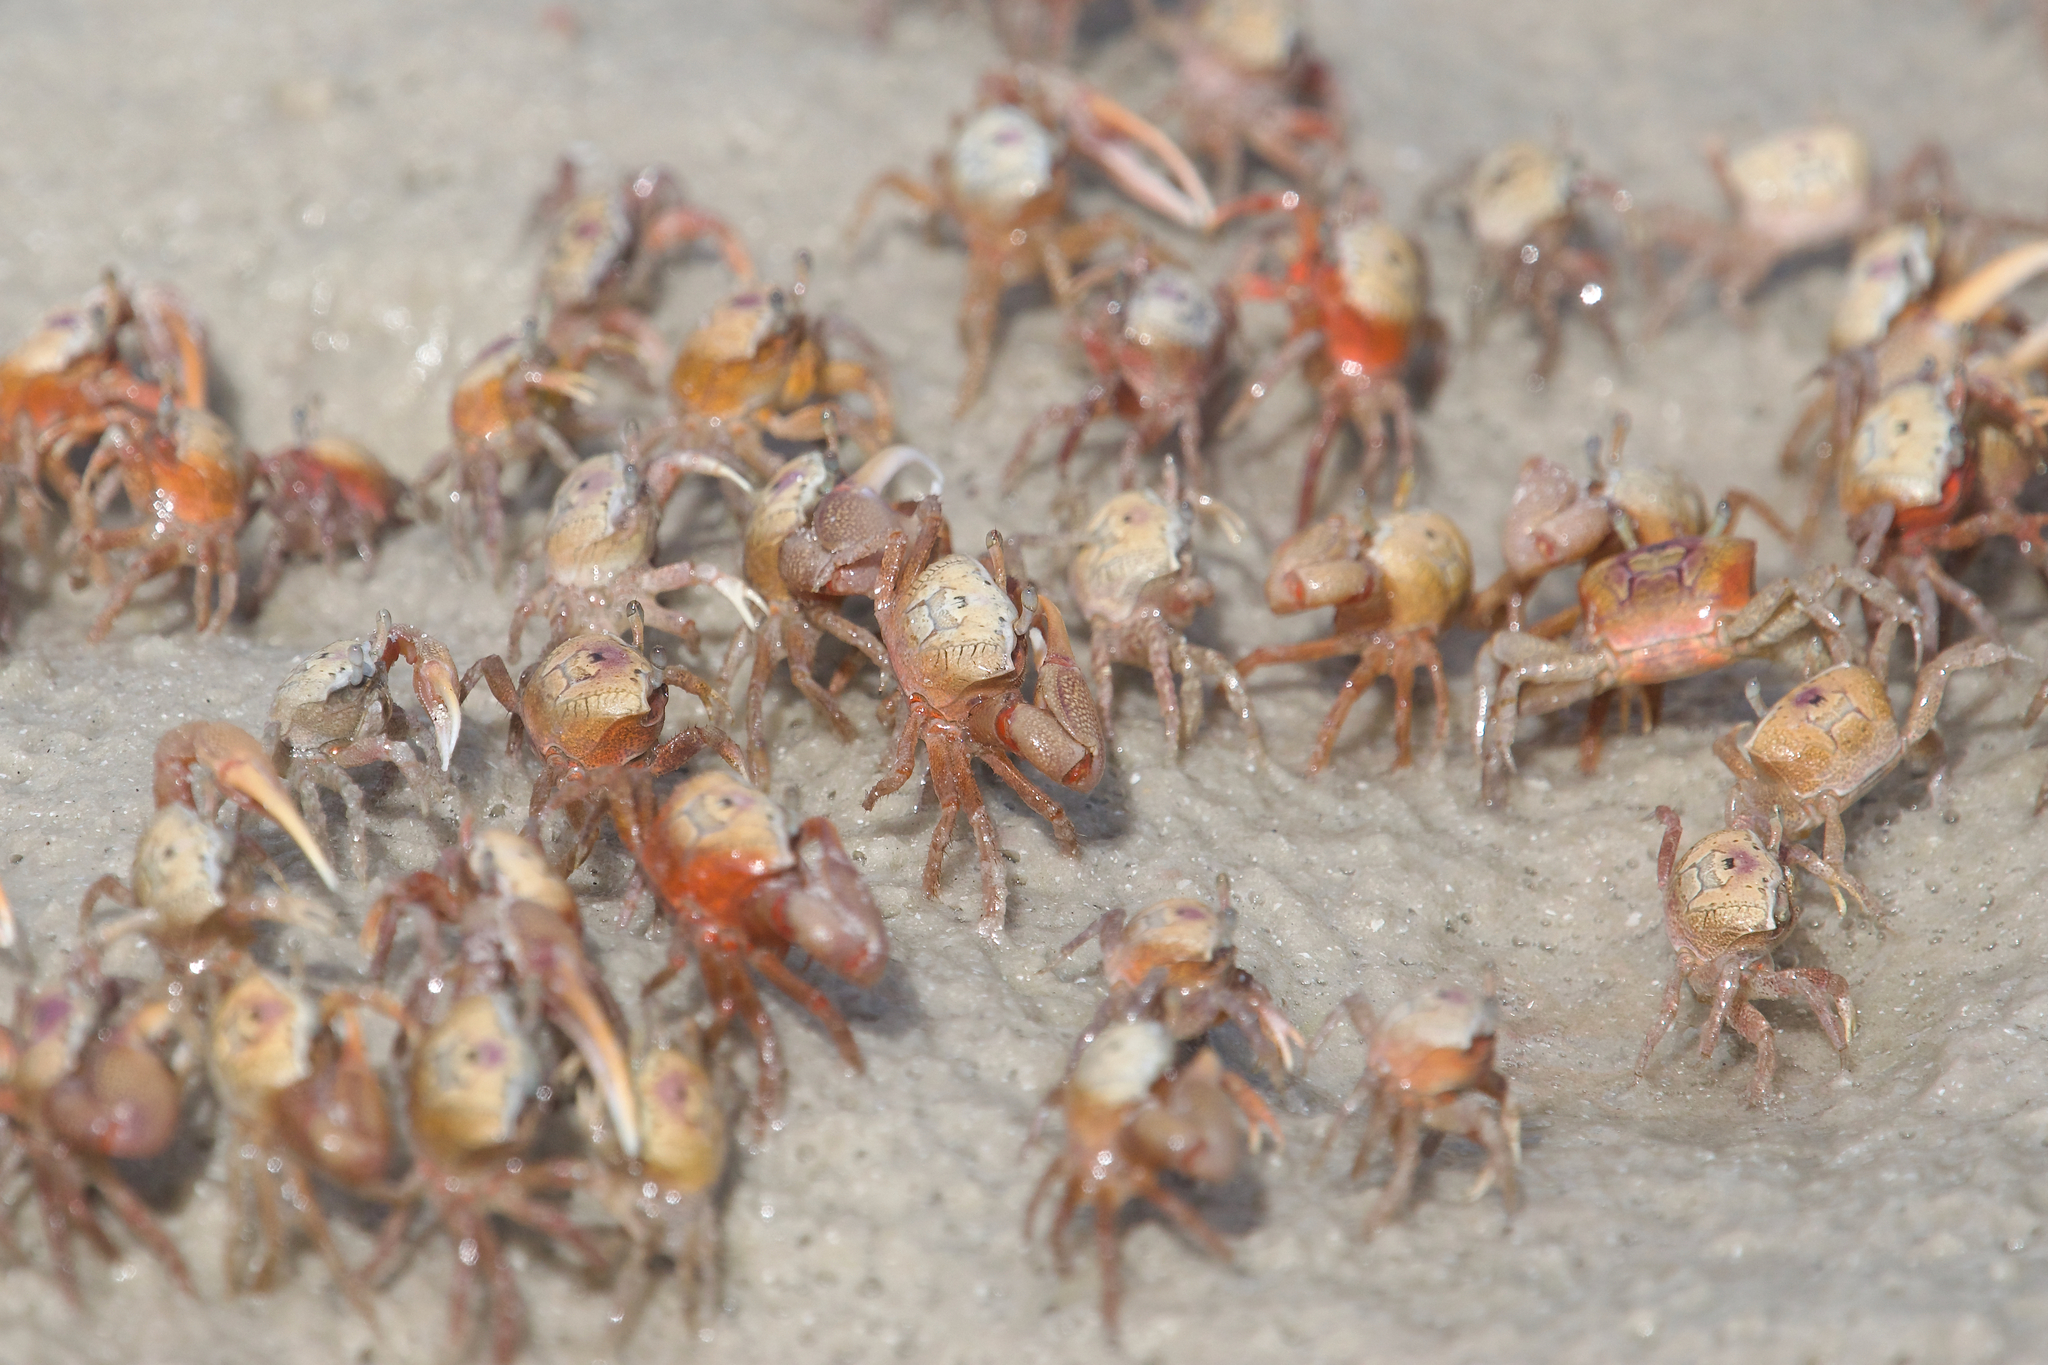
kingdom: Animalia
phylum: Arthropoda
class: Malacostraca
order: Decapoda
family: Ocypodidae
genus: Leptuca
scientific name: Leptuca pugilator
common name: Atlantic sand fiddler crab
